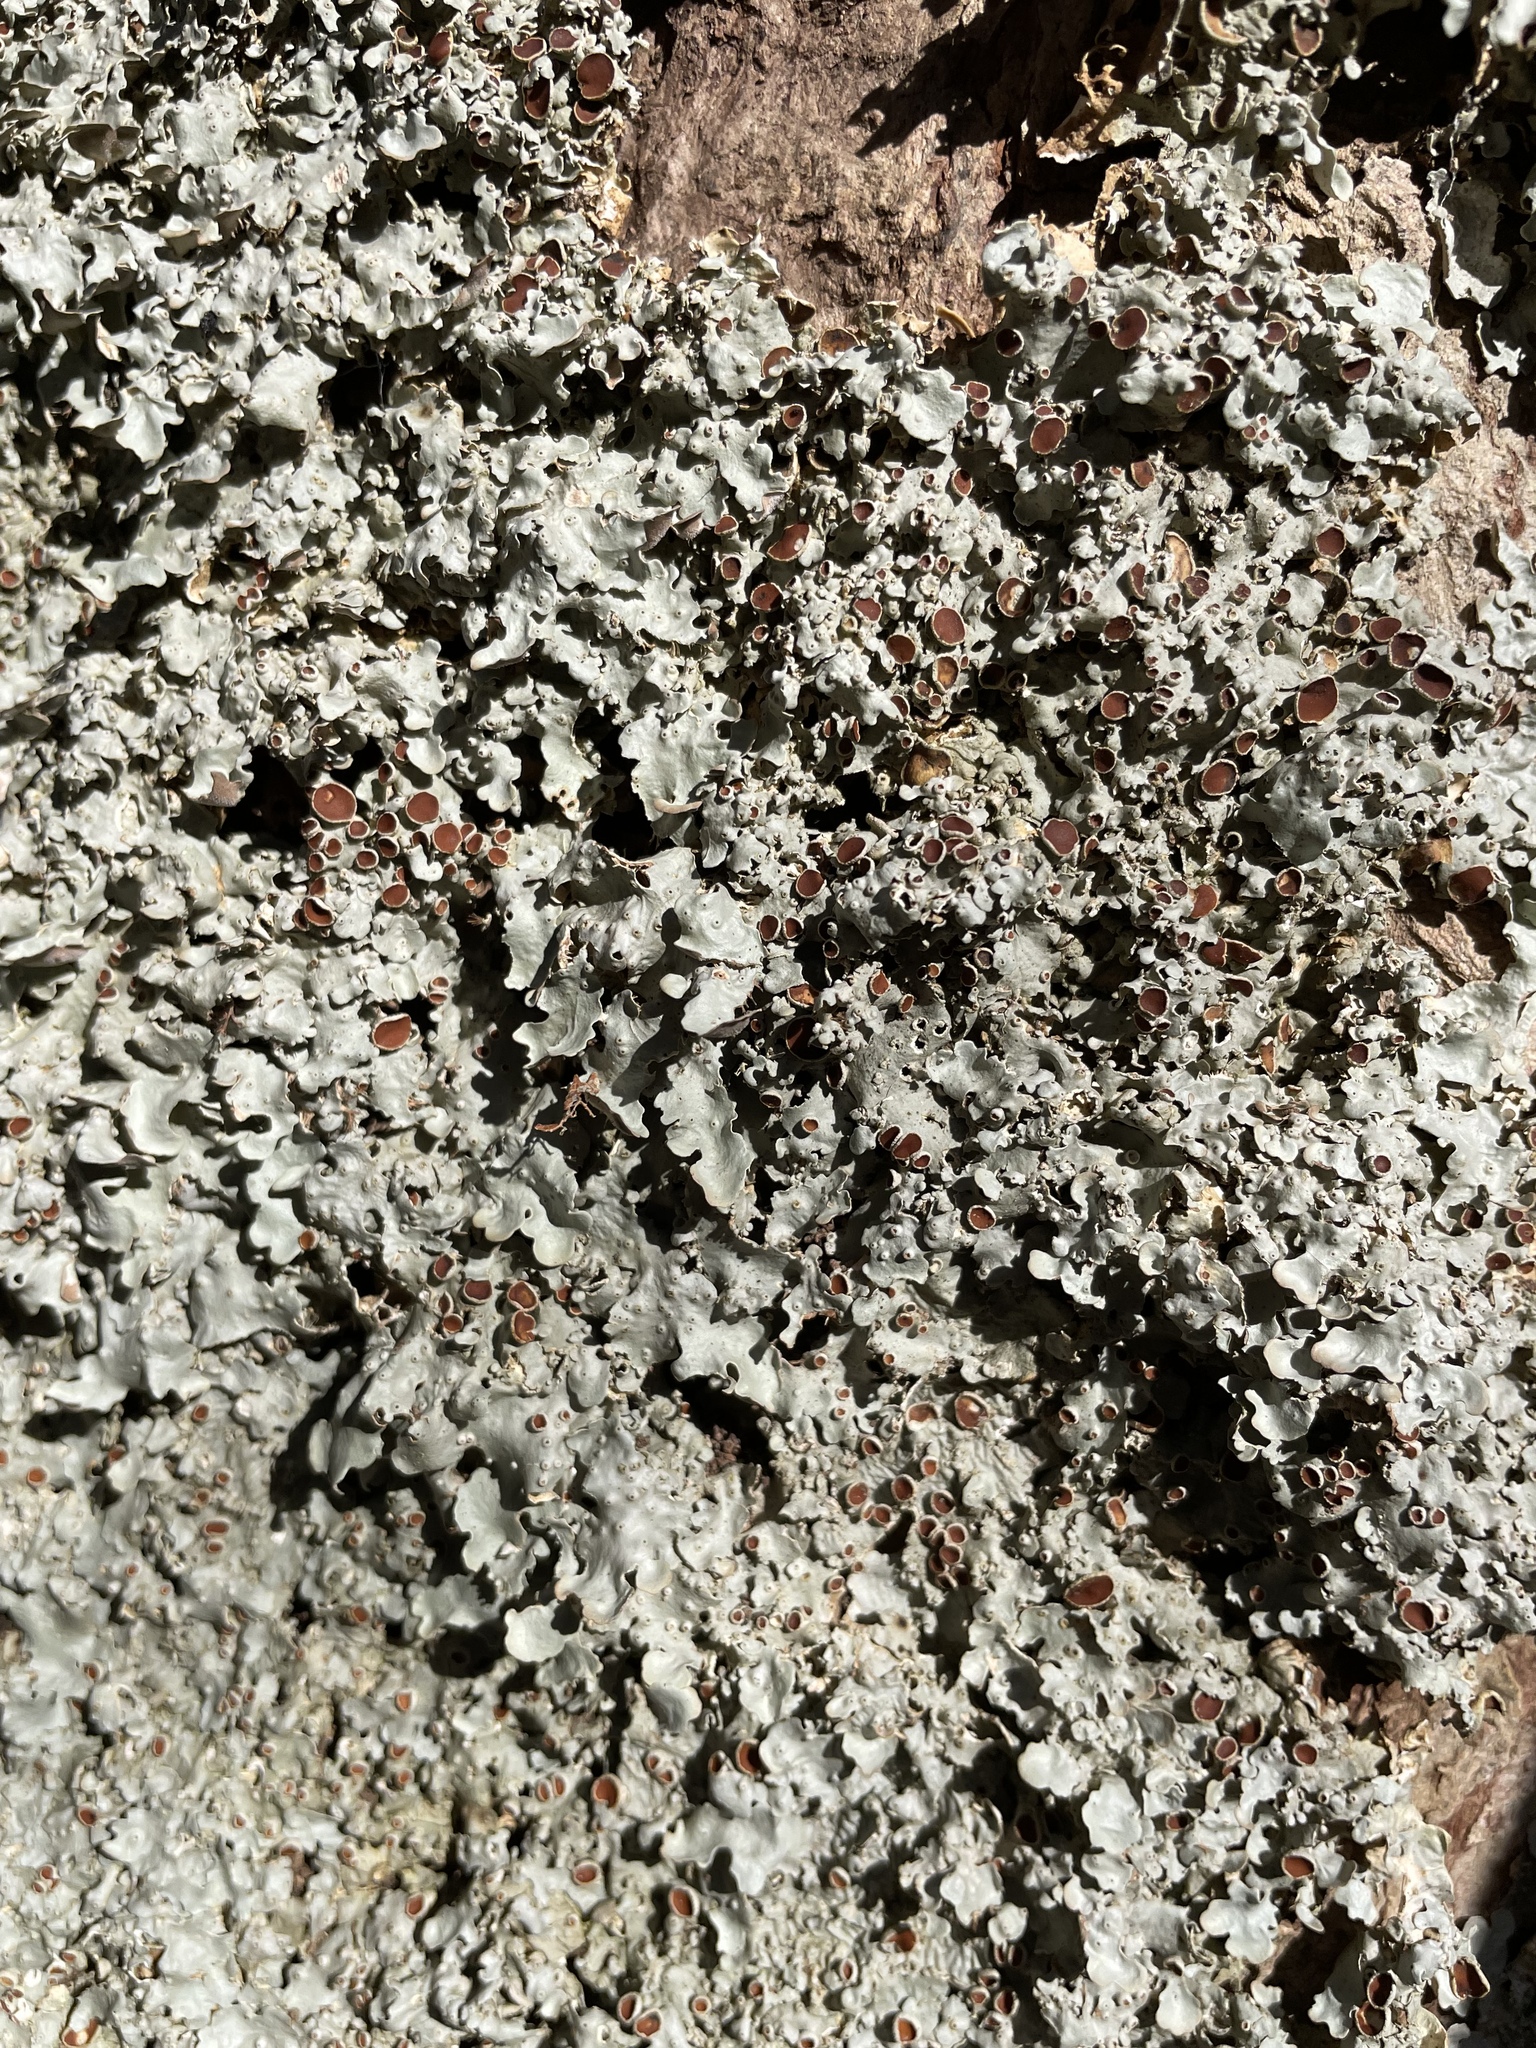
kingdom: Fungi
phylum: Ascomycota
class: Lecanoromycetes
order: Peltigerales
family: Lobariaceae
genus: Ricasolia
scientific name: Ricasolia quercizans
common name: Smooth lungwort
